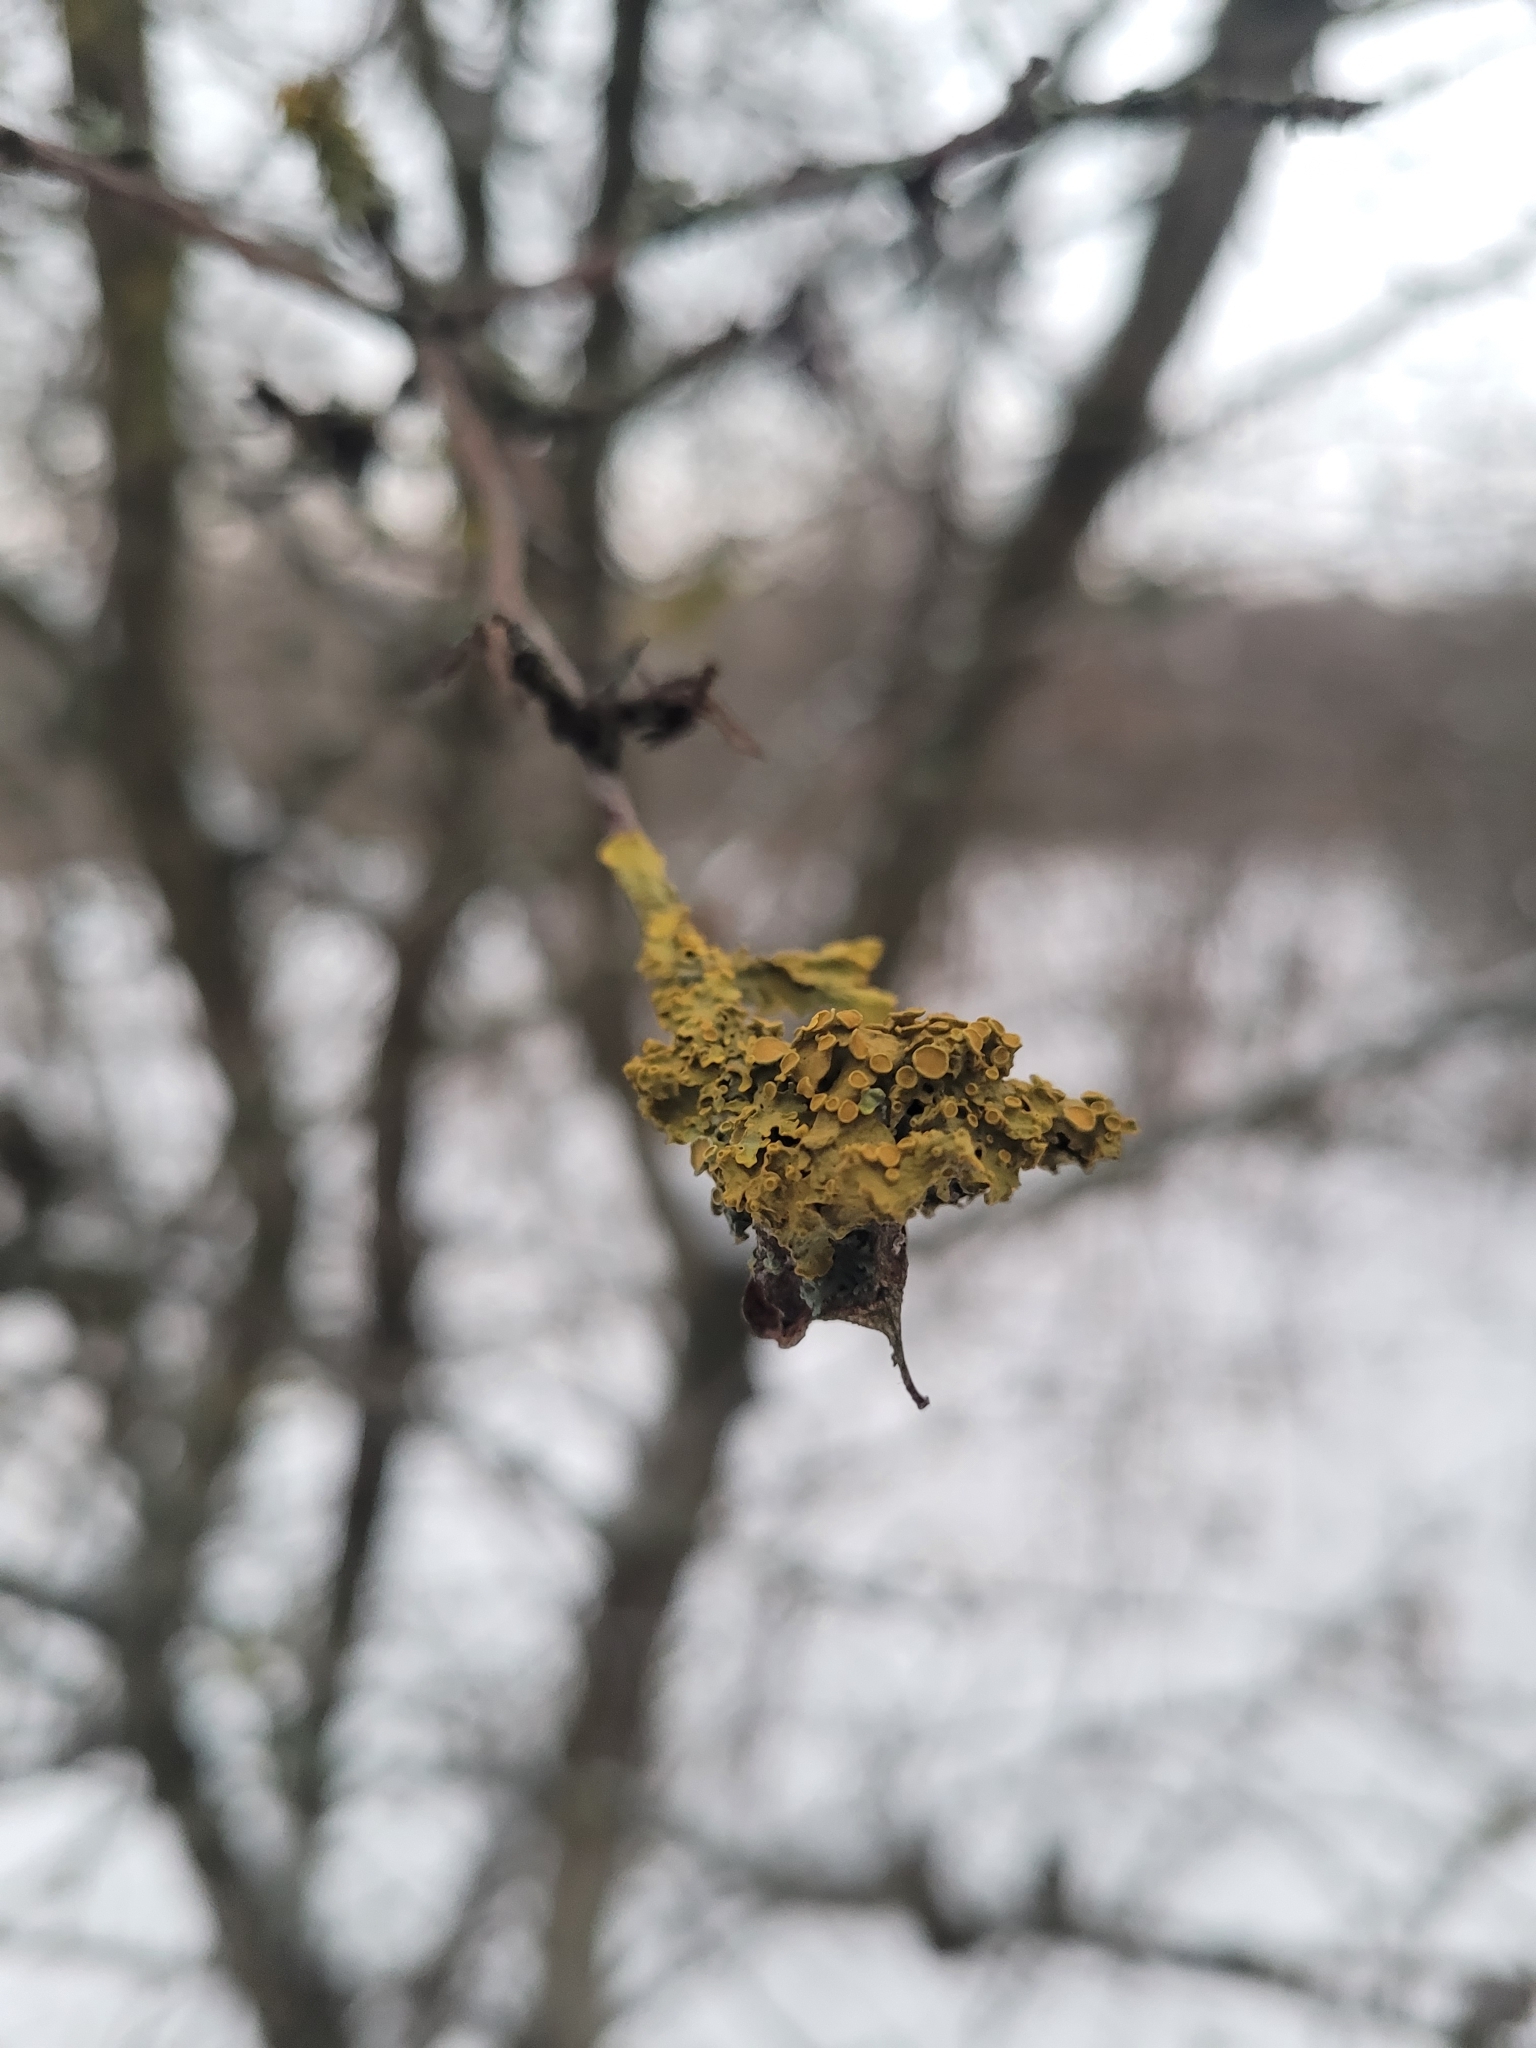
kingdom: Fungi
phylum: Ascomycota
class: Lecanoromycetes
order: Teloschistales
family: Teloschistaceae
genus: Xanthoria
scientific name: Xanthoria parietina
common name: Common orange lichen
